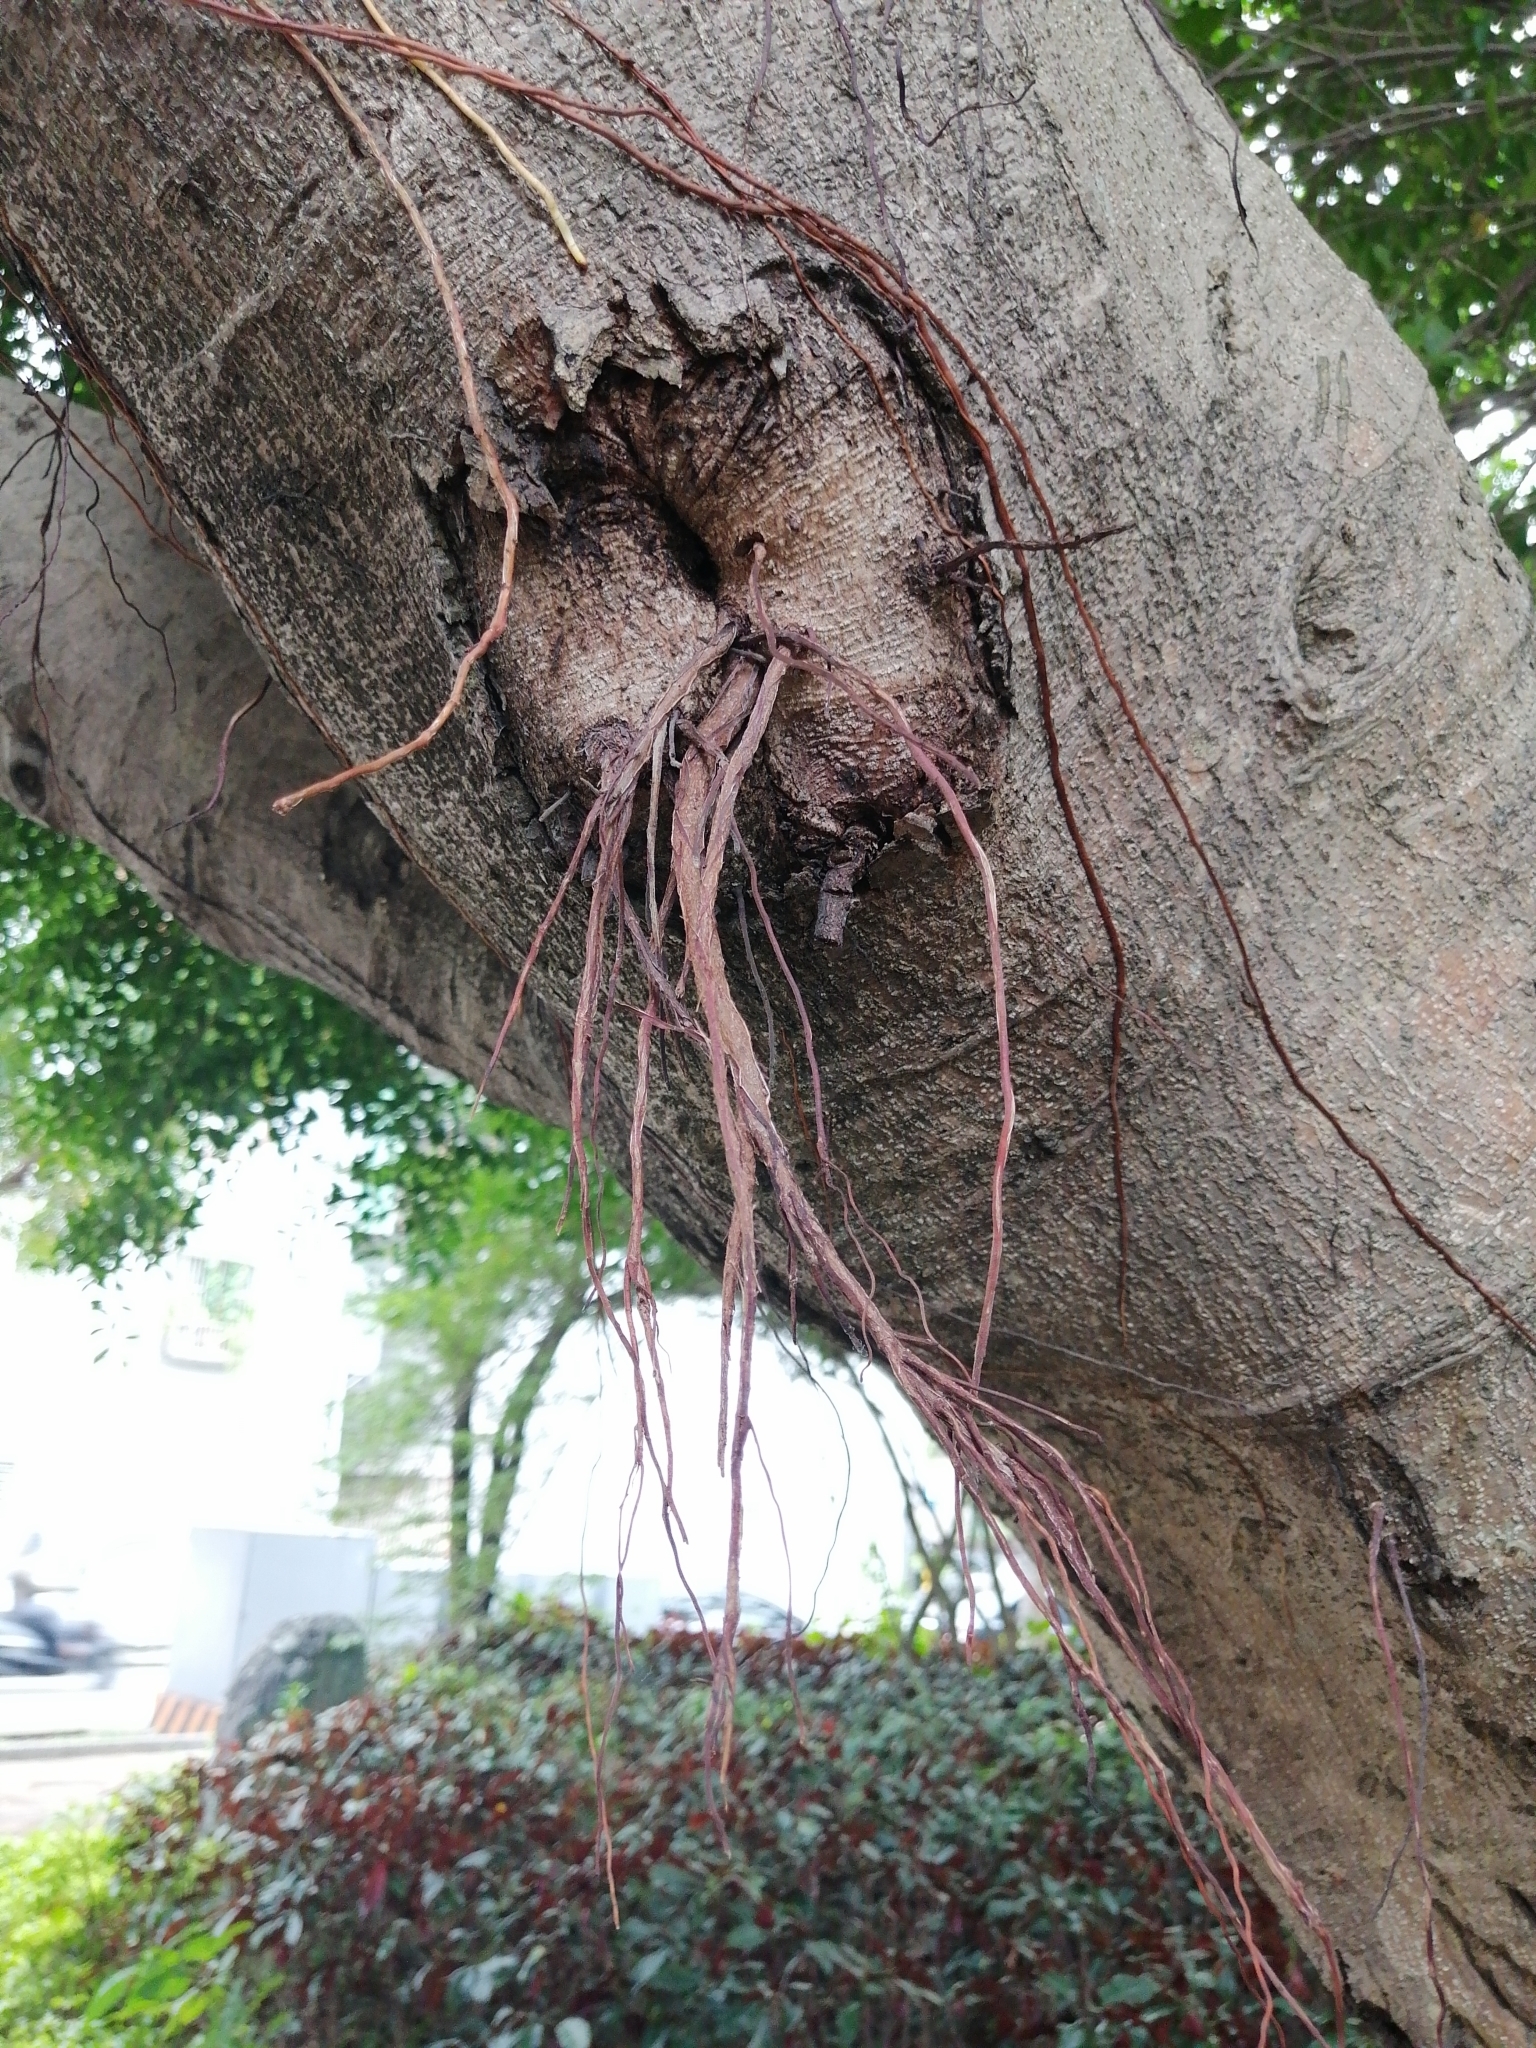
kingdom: Plantae
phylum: Tracheophyta
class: Magnoliopsida
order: Rosales
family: Moraceae
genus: Ficus
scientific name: Ficus microcarpa
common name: Chinese banyan
